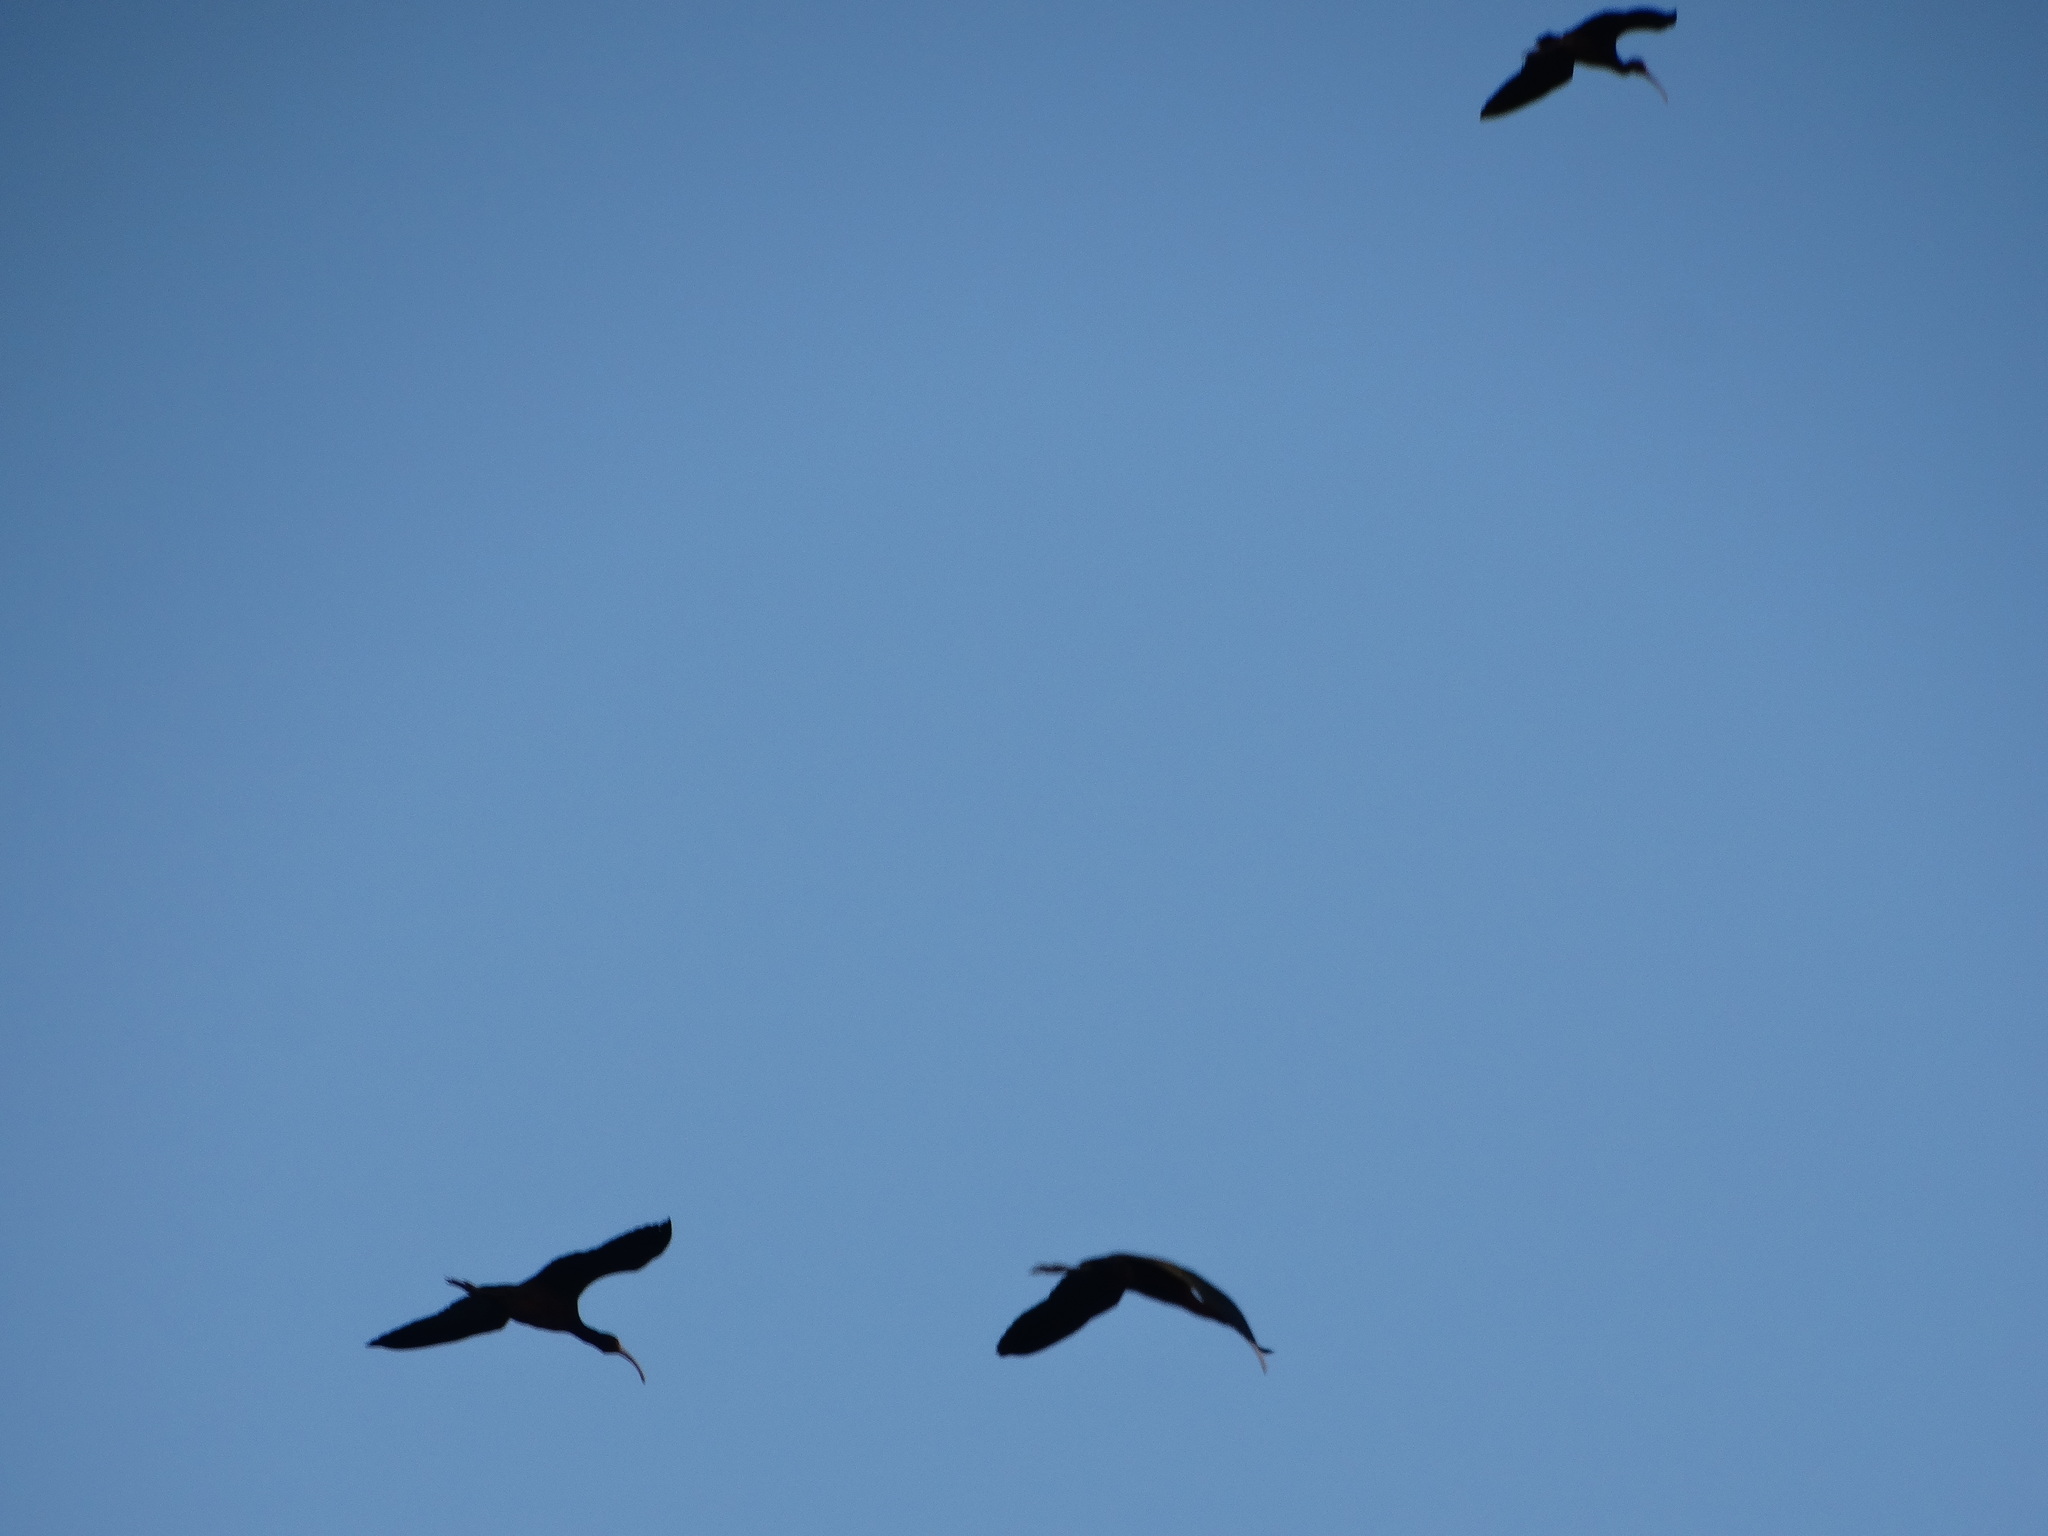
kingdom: Animalia
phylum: Chordata
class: Aves
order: Pelecaniformes
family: Threskiornithidae
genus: Plegadis
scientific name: Plegadis chihi
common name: White-faced ibis
